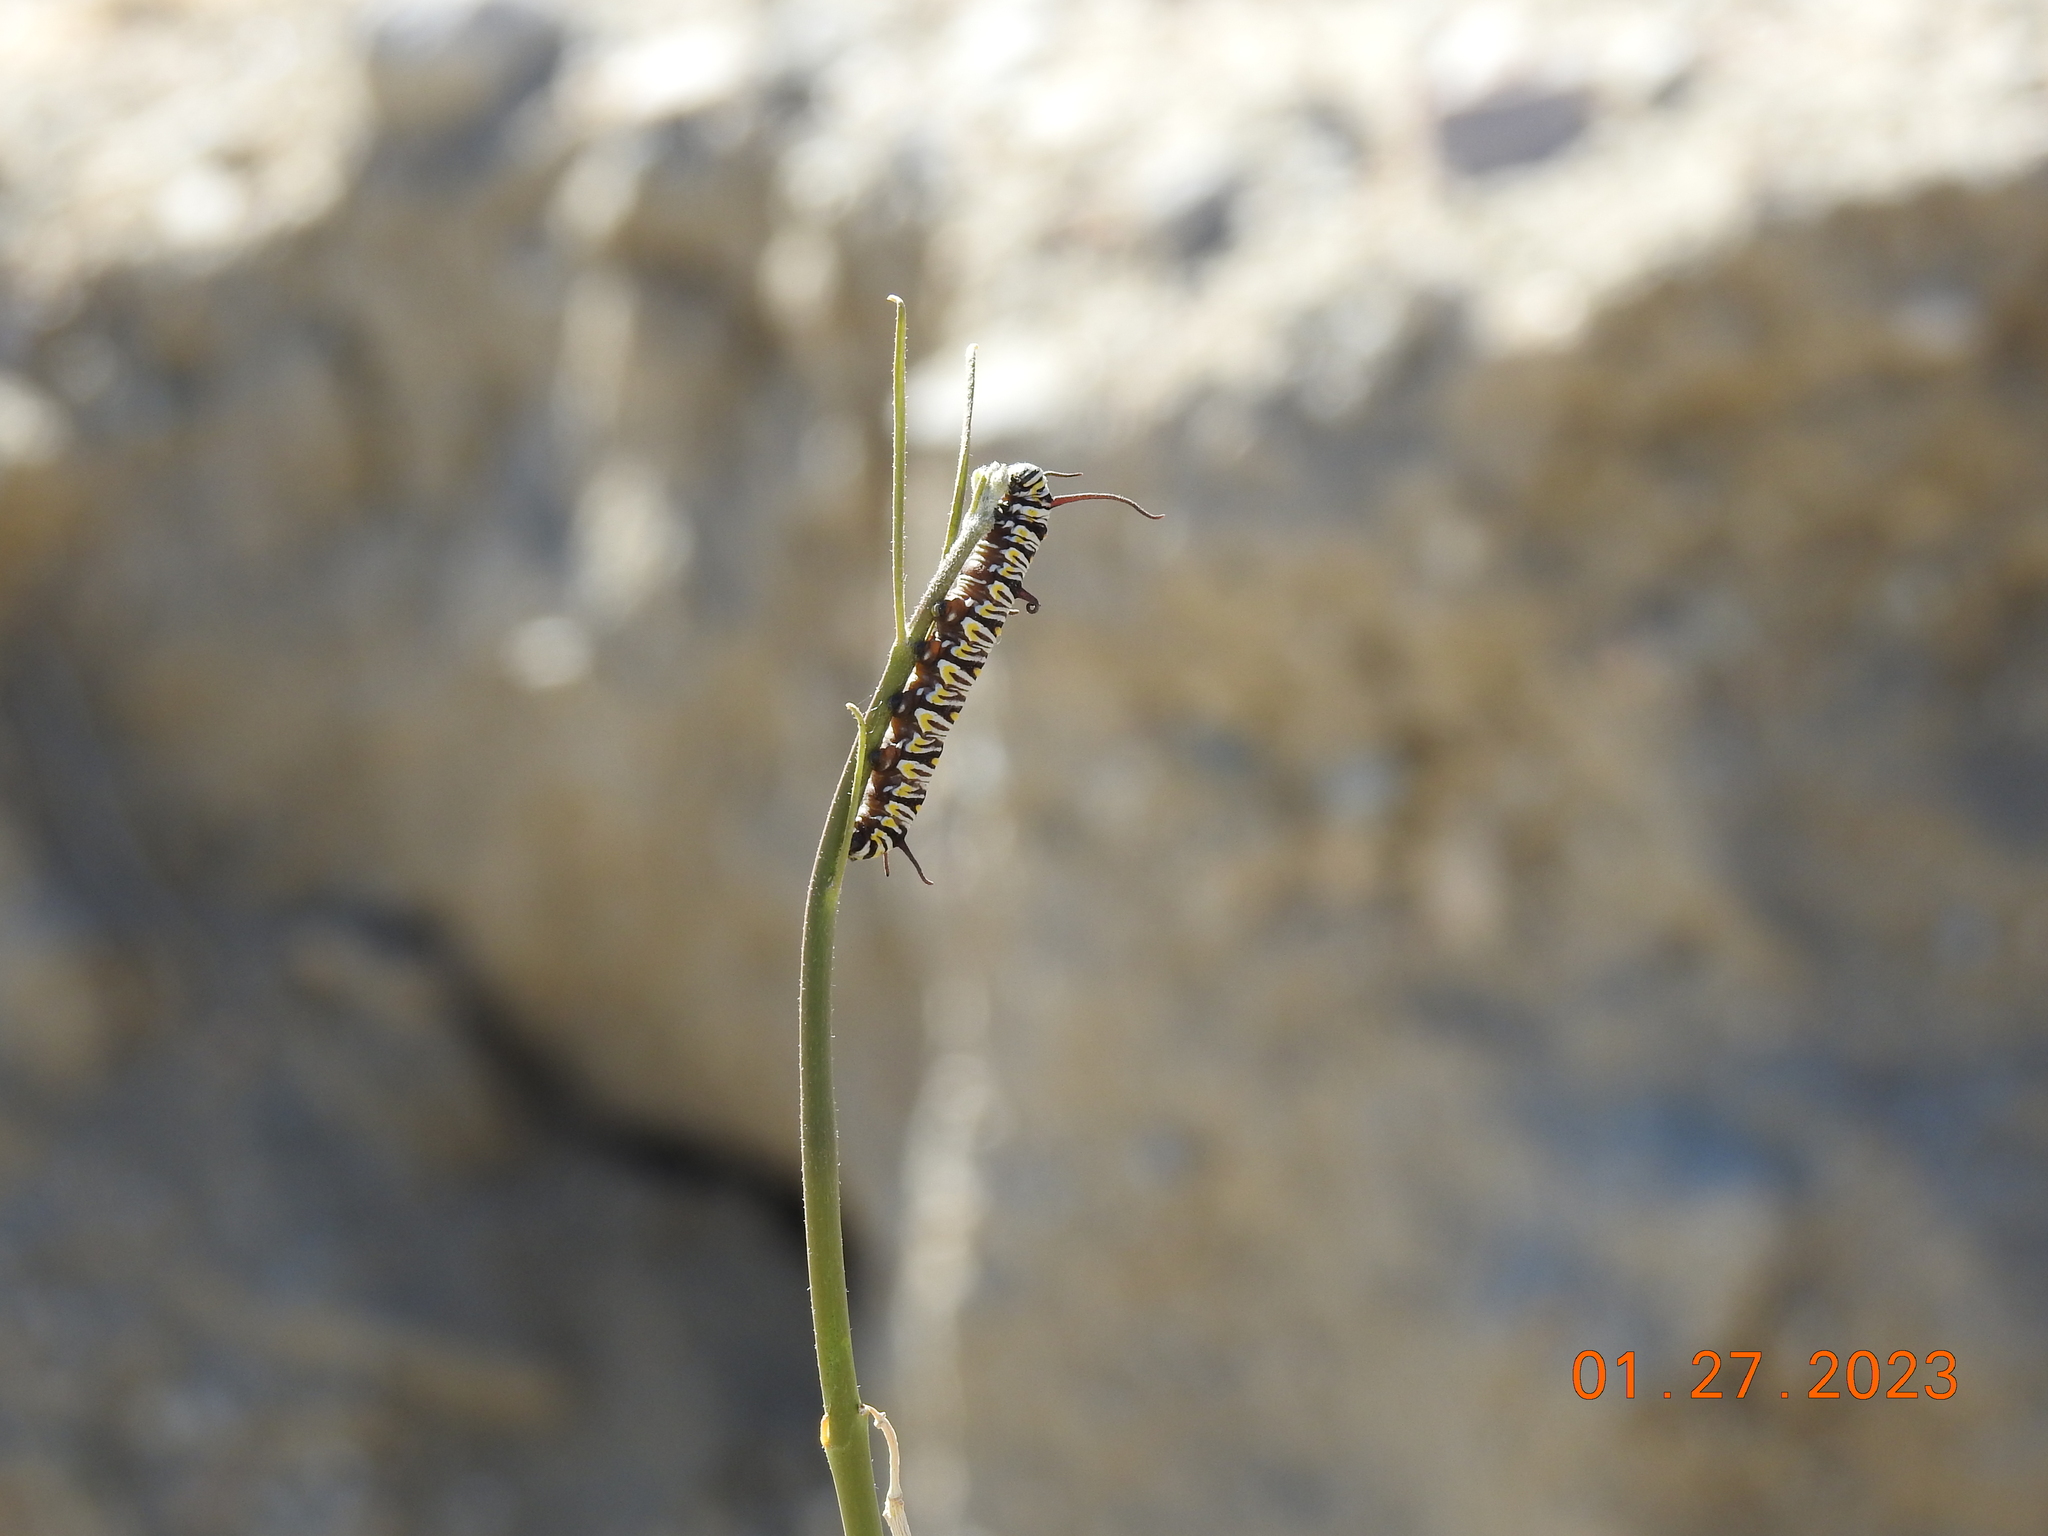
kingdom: Animalia
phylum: Arthropoda
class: Insecta
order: Lepidoptera
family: Nymphalidae
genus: Danaus
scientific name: Danaus gilippus
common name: Queen
